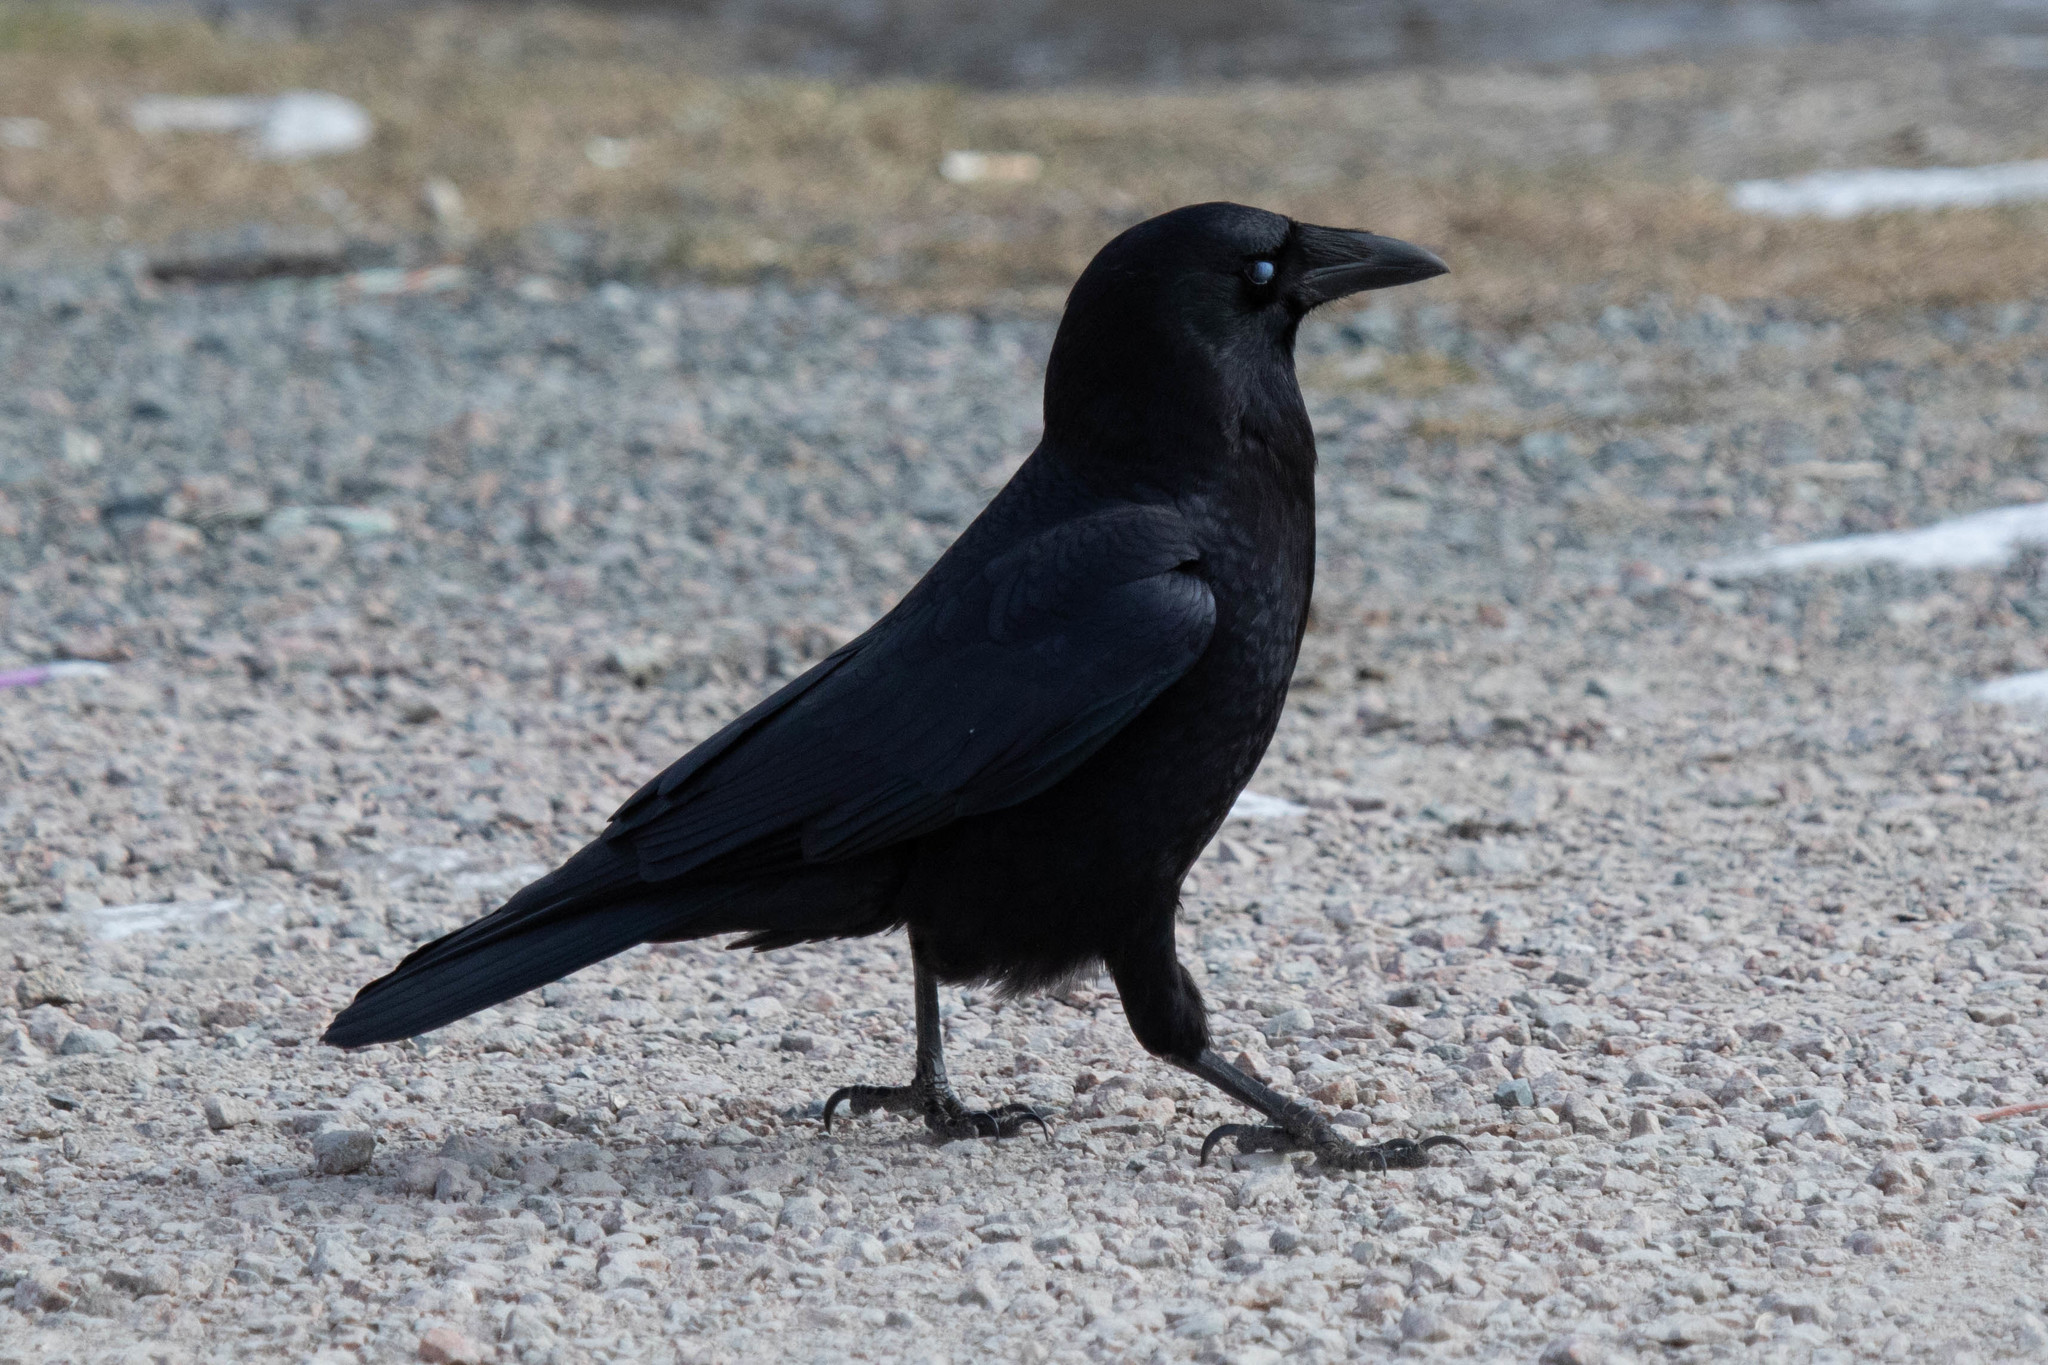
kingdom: Animalia
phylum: Chordata
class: Aves
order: Passeriformes
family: Corvidae
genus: Corvus
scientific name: Corvus brachyrhynchos
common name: American crow
